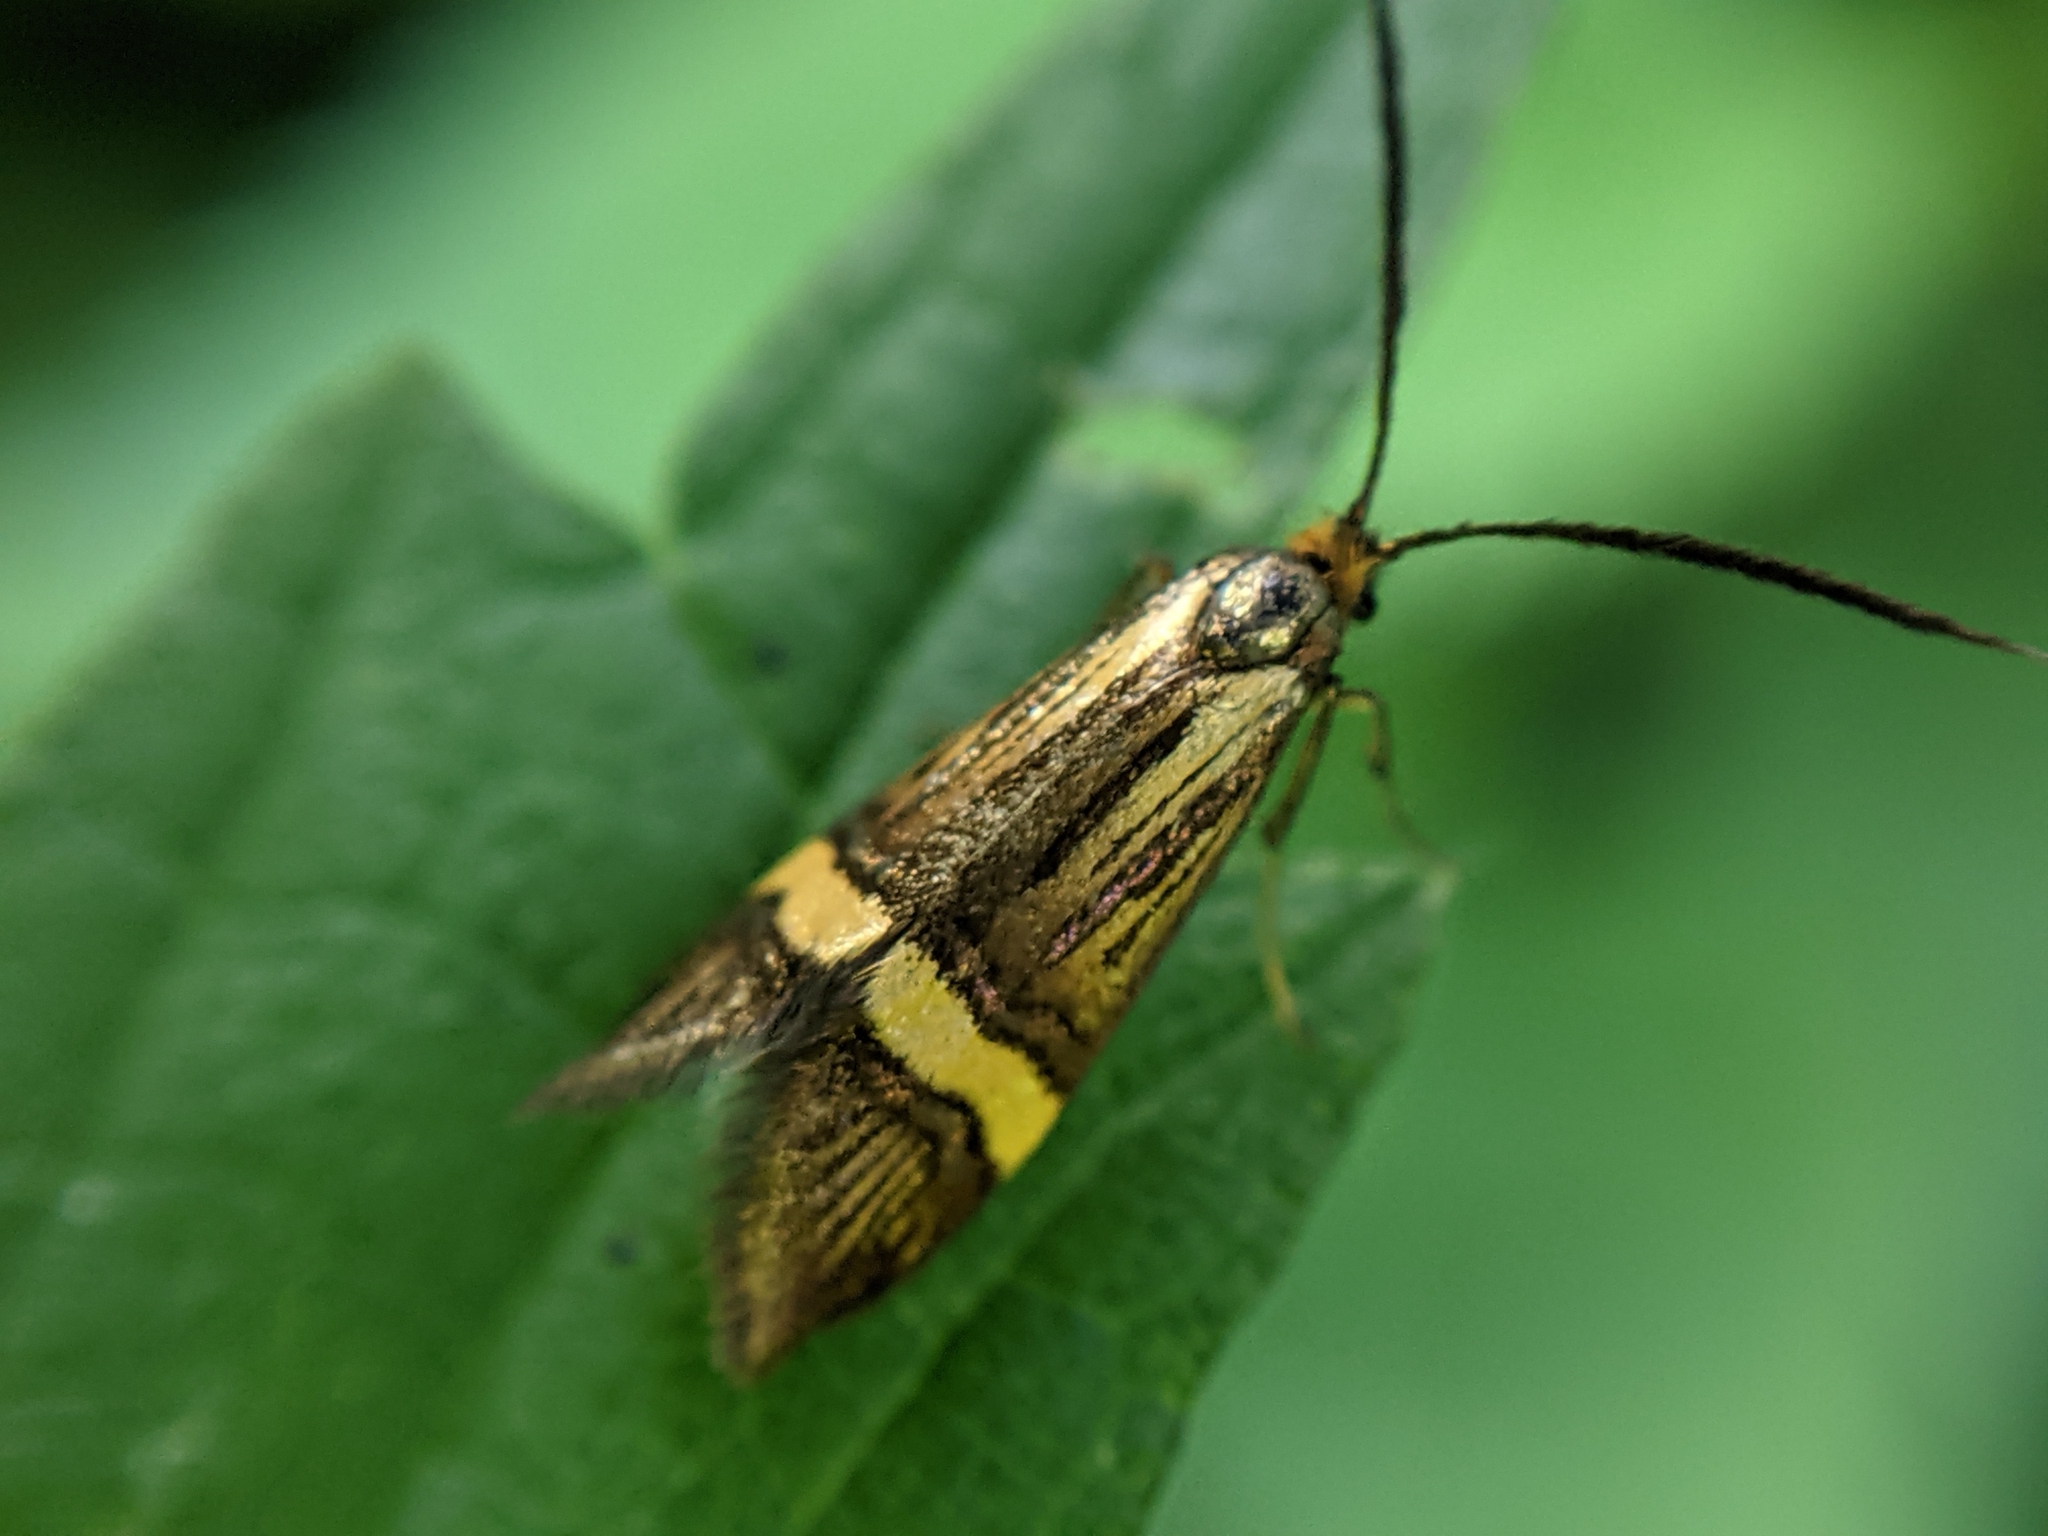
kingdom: Animalia
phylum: Arthropoda
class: Insecta
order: Lepidoptera
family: Adelidae
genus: Nemophora
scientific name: Nemophora
